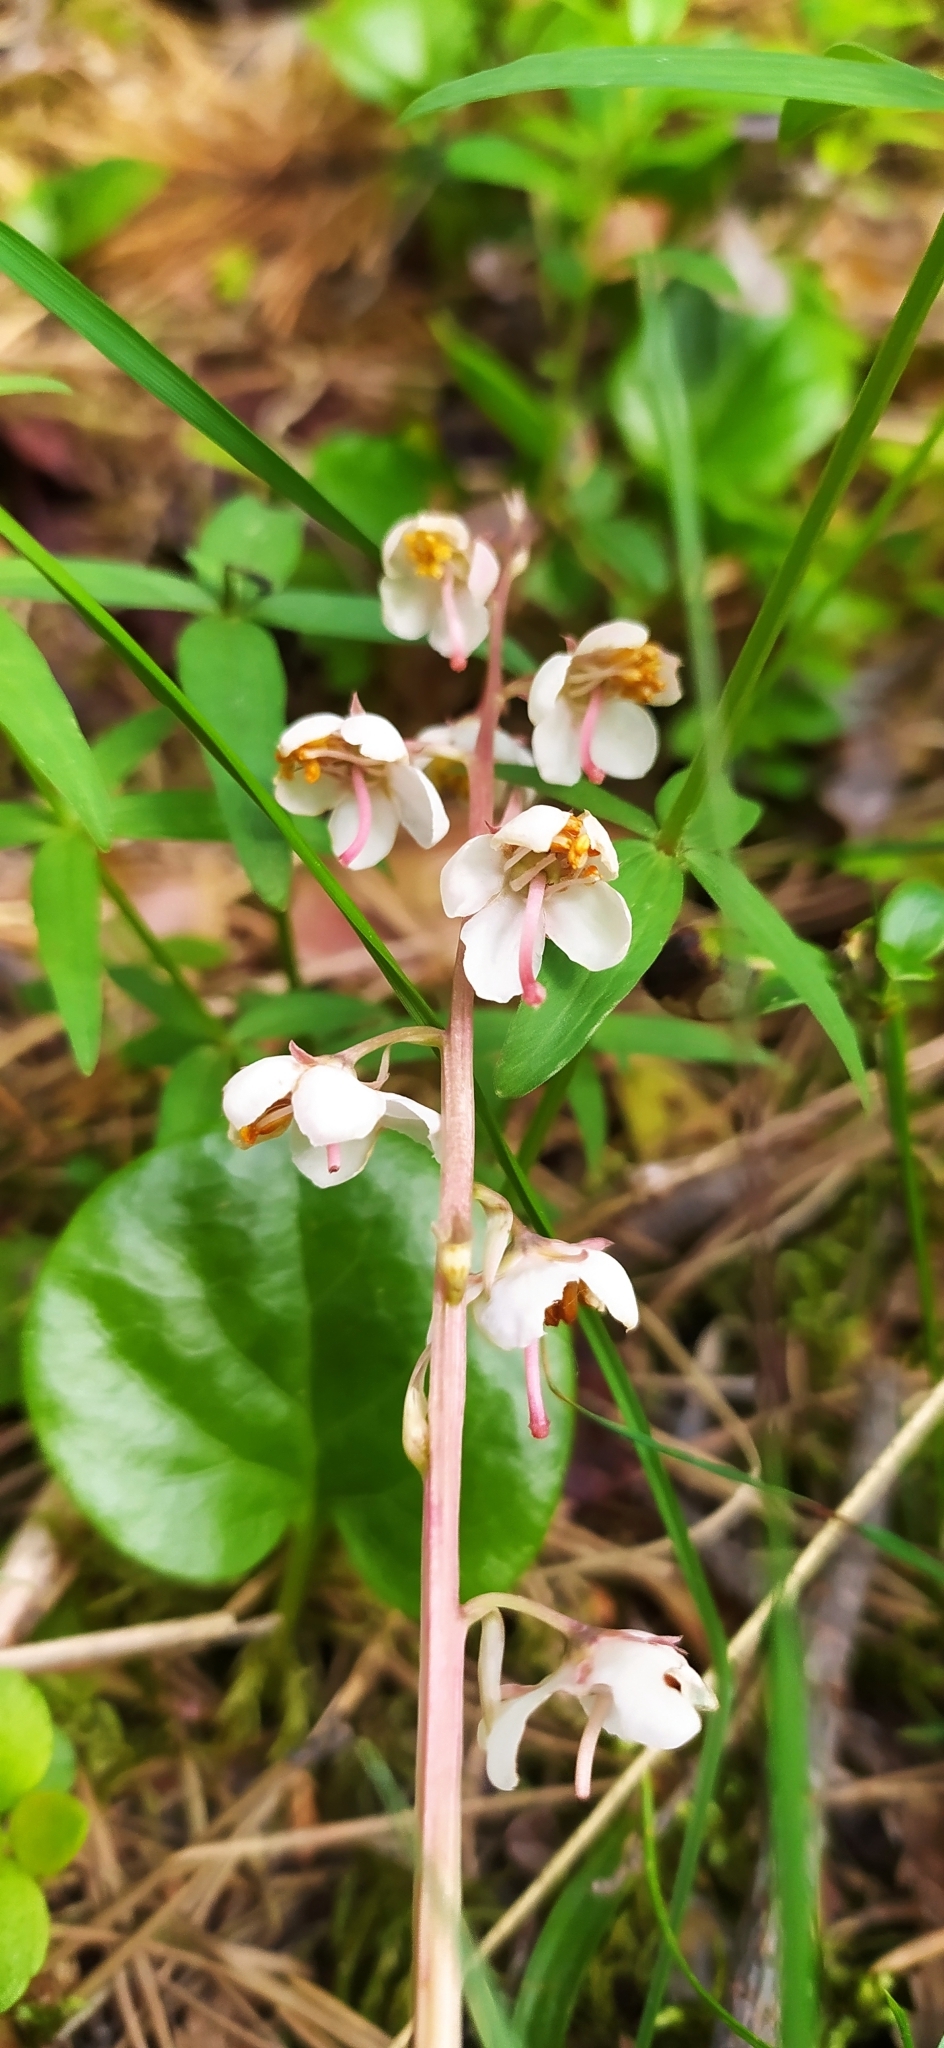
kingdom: Plantae
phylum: Tracheophyta
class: Magnoliopsida
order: Ericales
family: Ericaceae
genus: Pyrola
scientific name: Pyrola rotundifolia
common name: Round-leaved wintergreen
